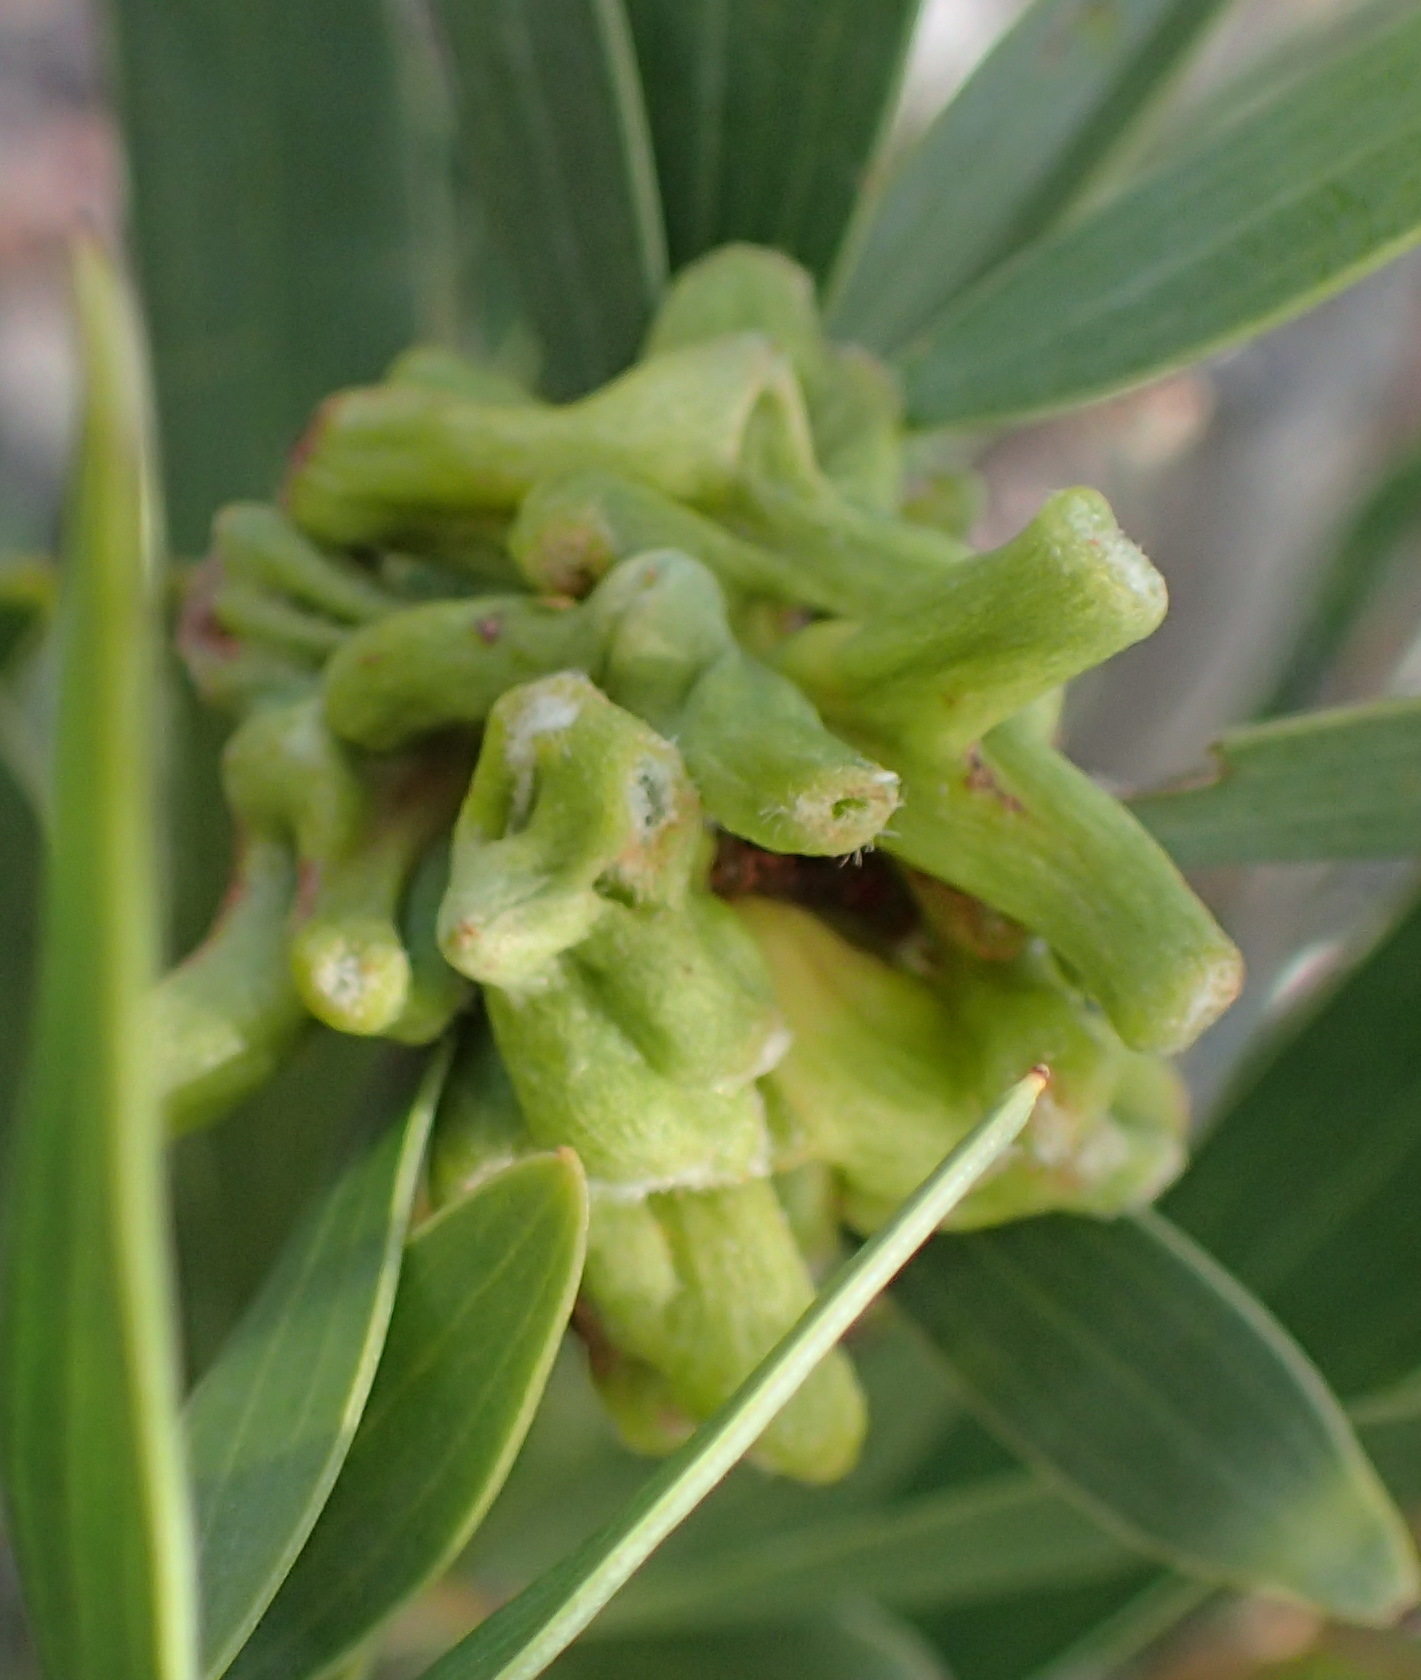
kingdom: Animalia
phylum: Arthropoda
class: Insecta
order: Diptera
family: Cecidomyiidae
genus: Dasineura
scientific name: Dasineura dielsi
